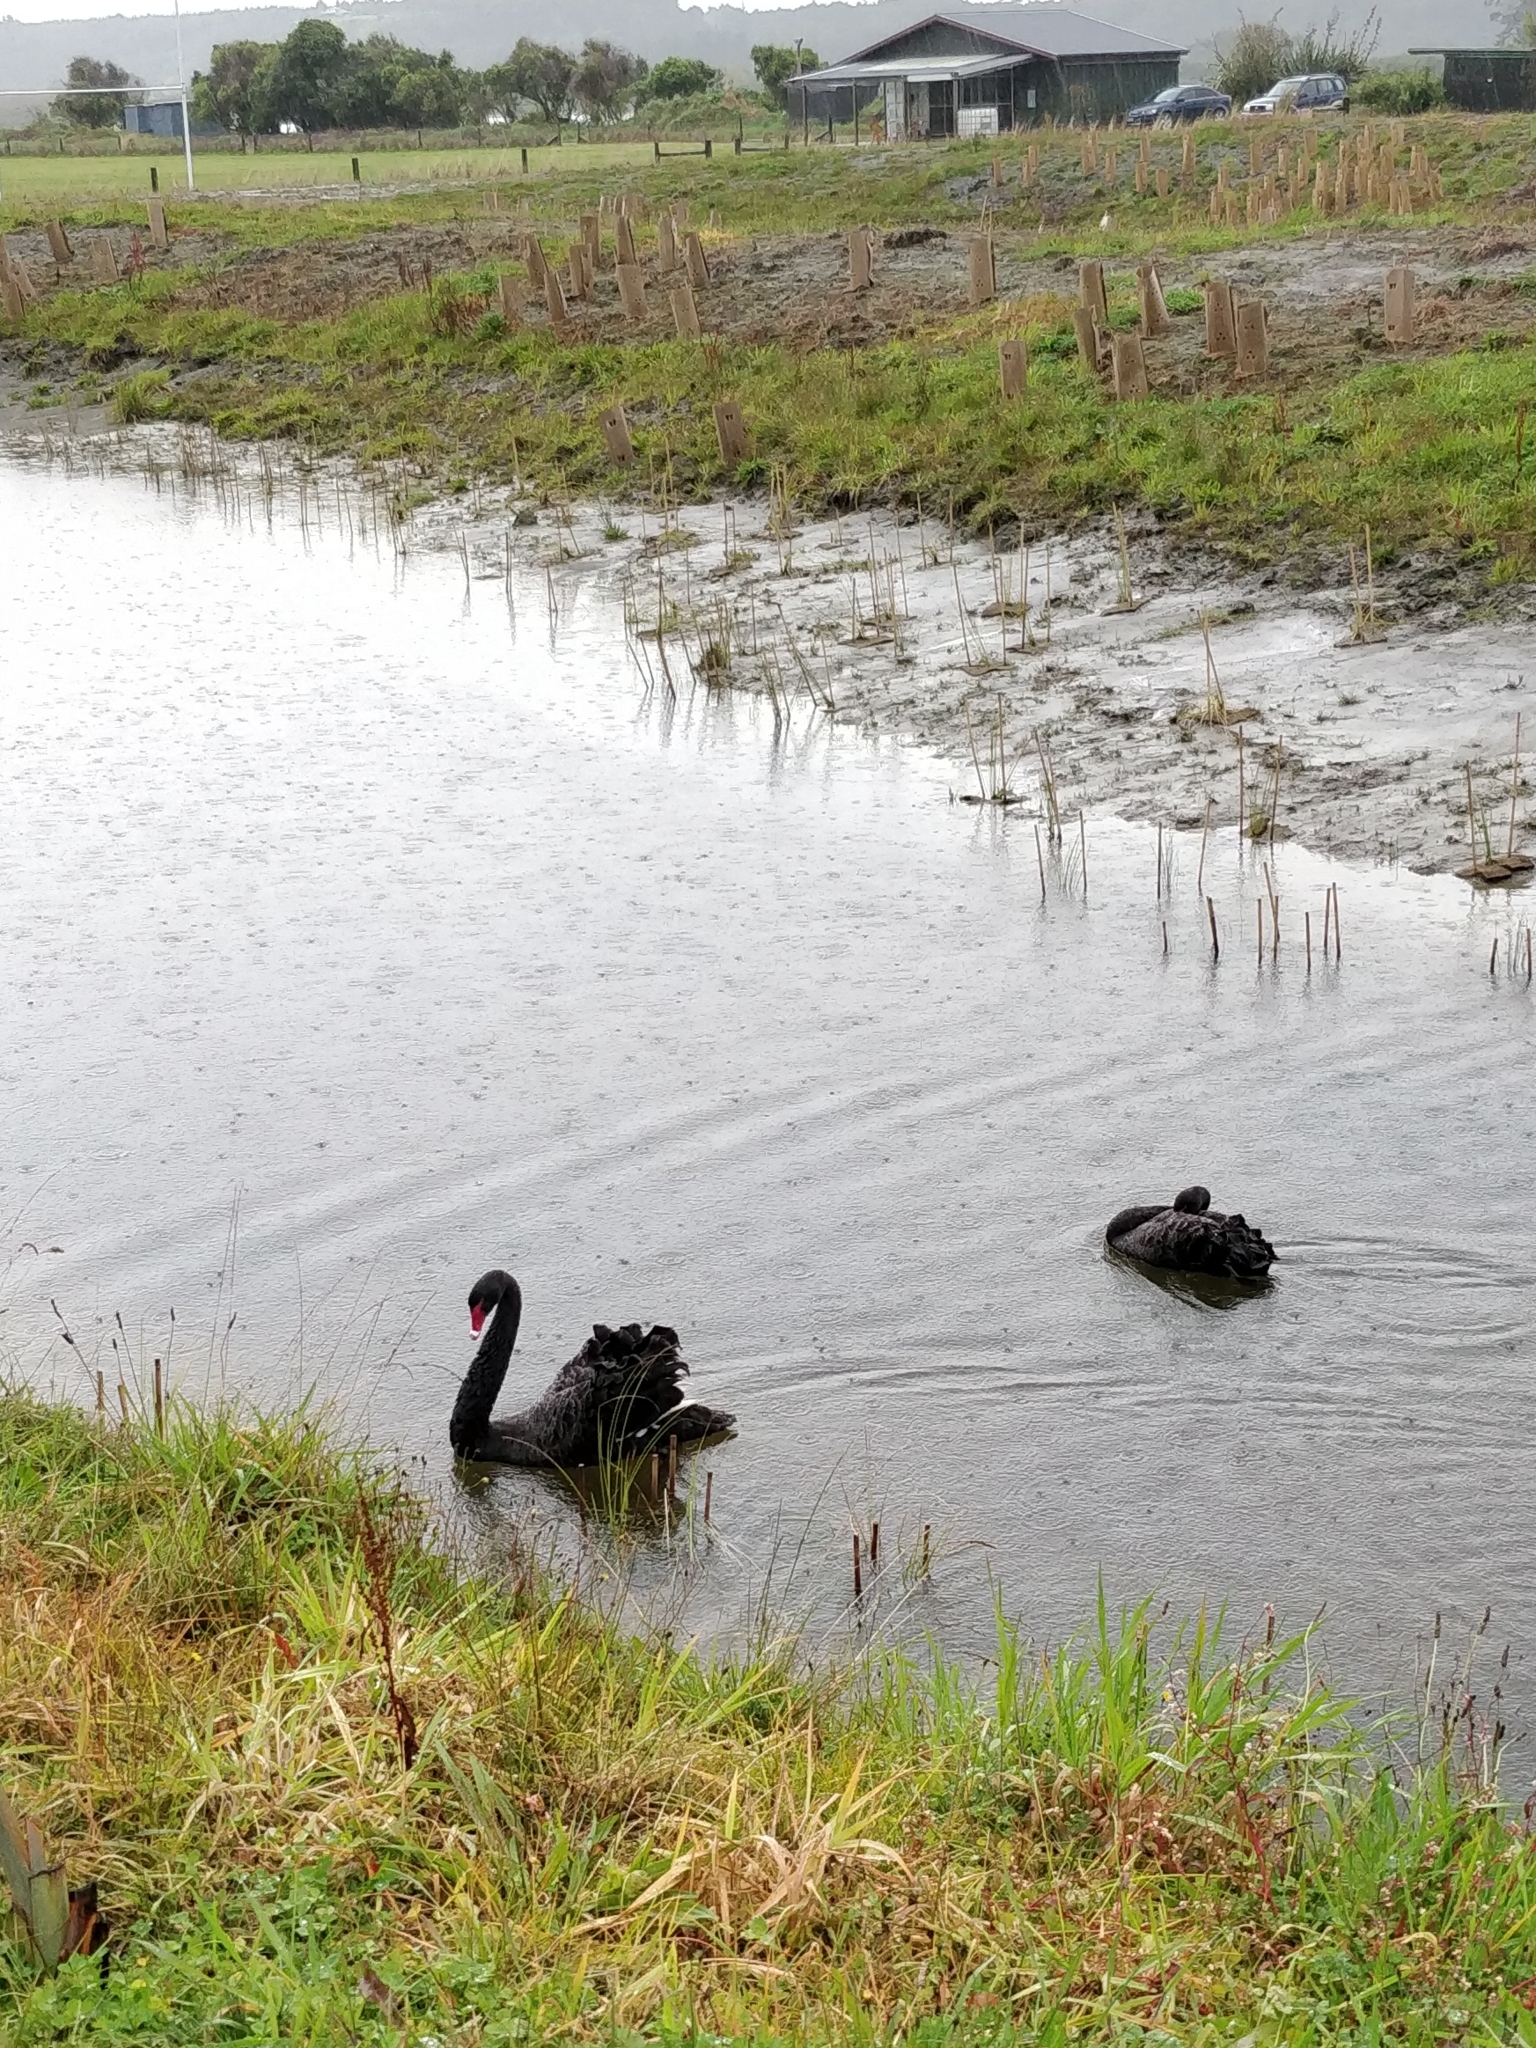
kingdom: Animalia
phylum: Chordata
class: Aves
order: Anseriformes
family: Anatidae
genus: Cygnus
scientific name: Cygnus atratus
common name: Black swan
